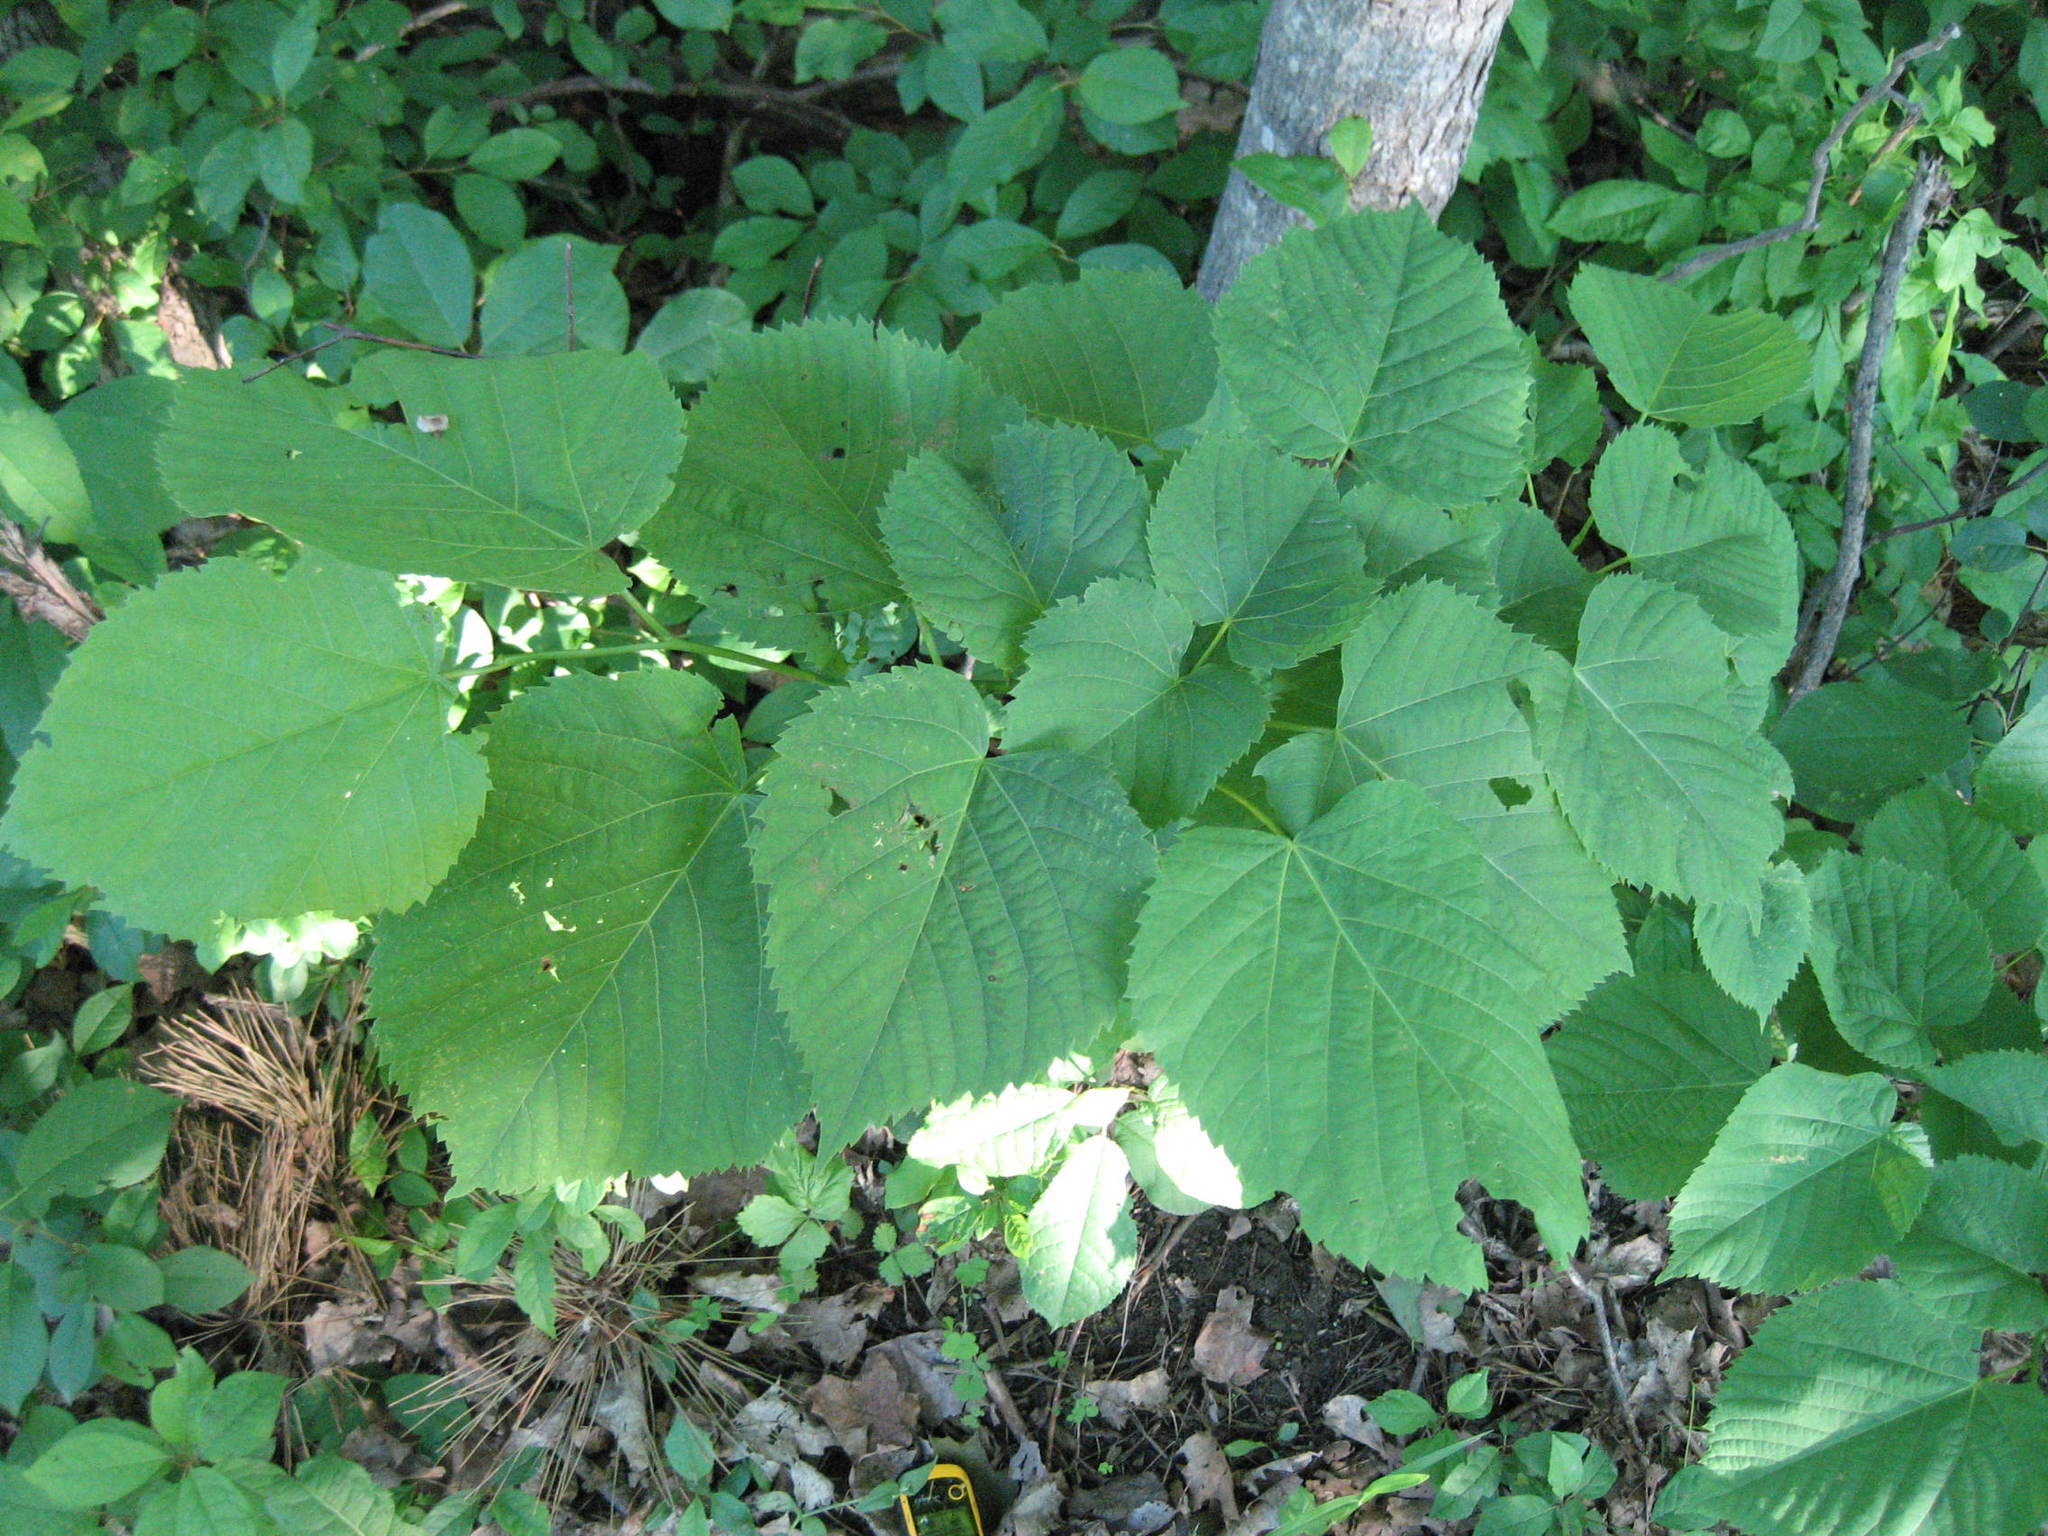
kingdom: Plantae
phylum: Tracheophyta
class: Magnoliopsida
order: Malvales
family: Malvaceae
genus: Tilia
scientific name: Tilia americana
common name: Basswood
